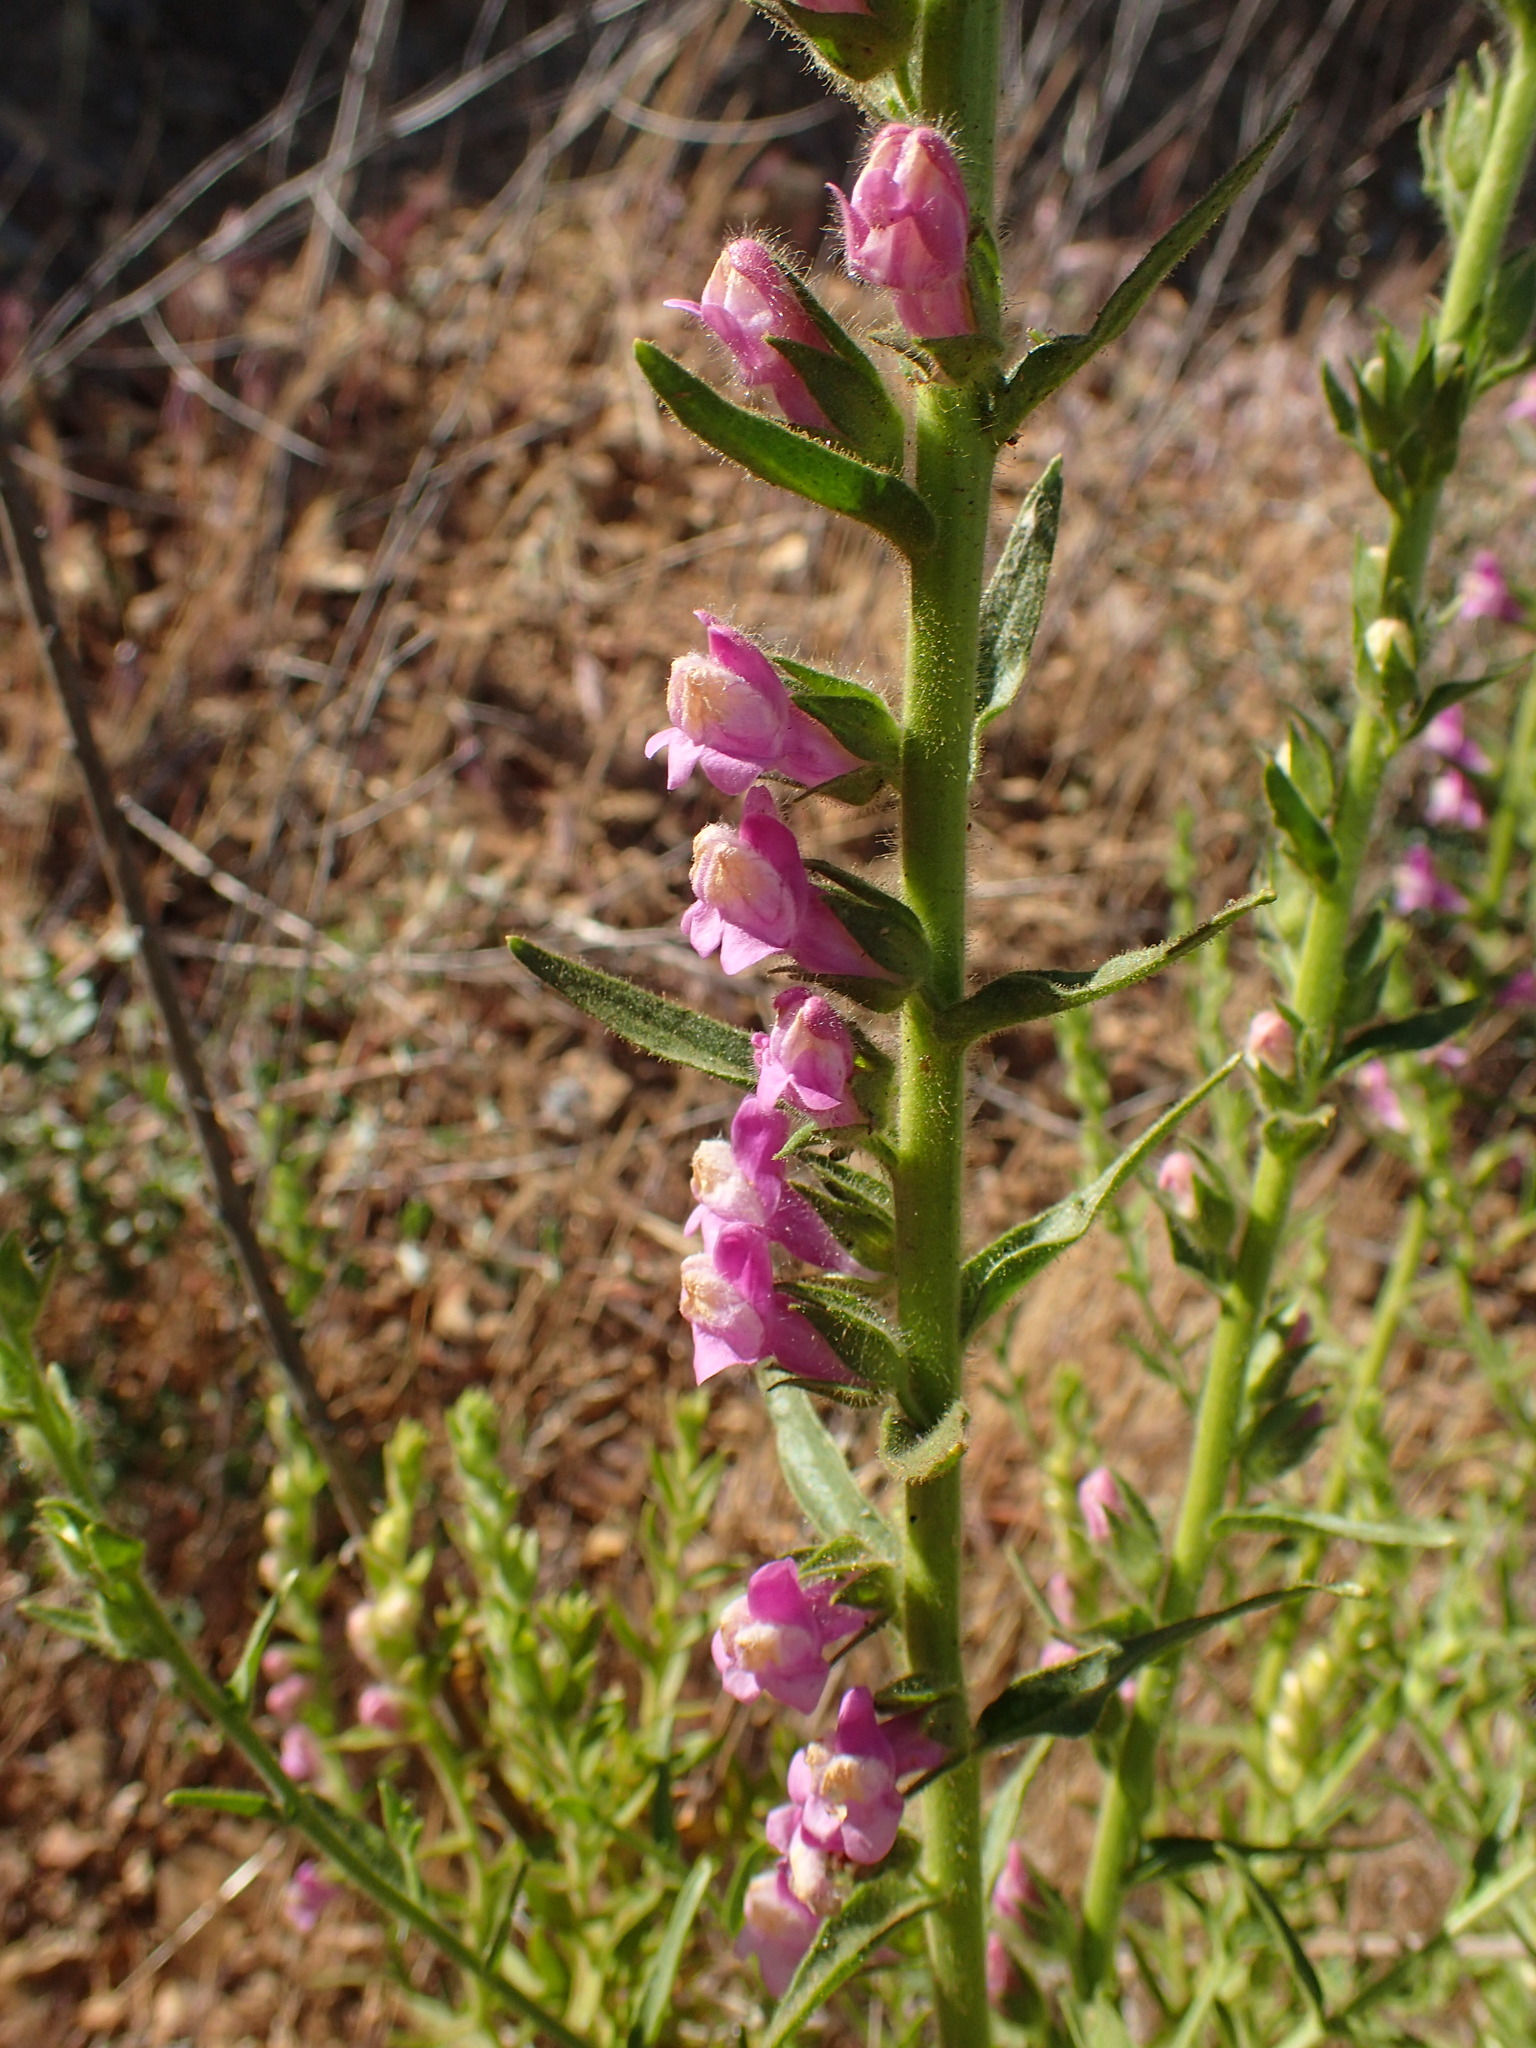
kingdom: Plantae
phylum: Tracheophyta
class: Magnoliopsida
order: Lamiales
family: Plantaginaceae
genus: Sairocarpus
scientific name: Sairocarpus multiflorus
